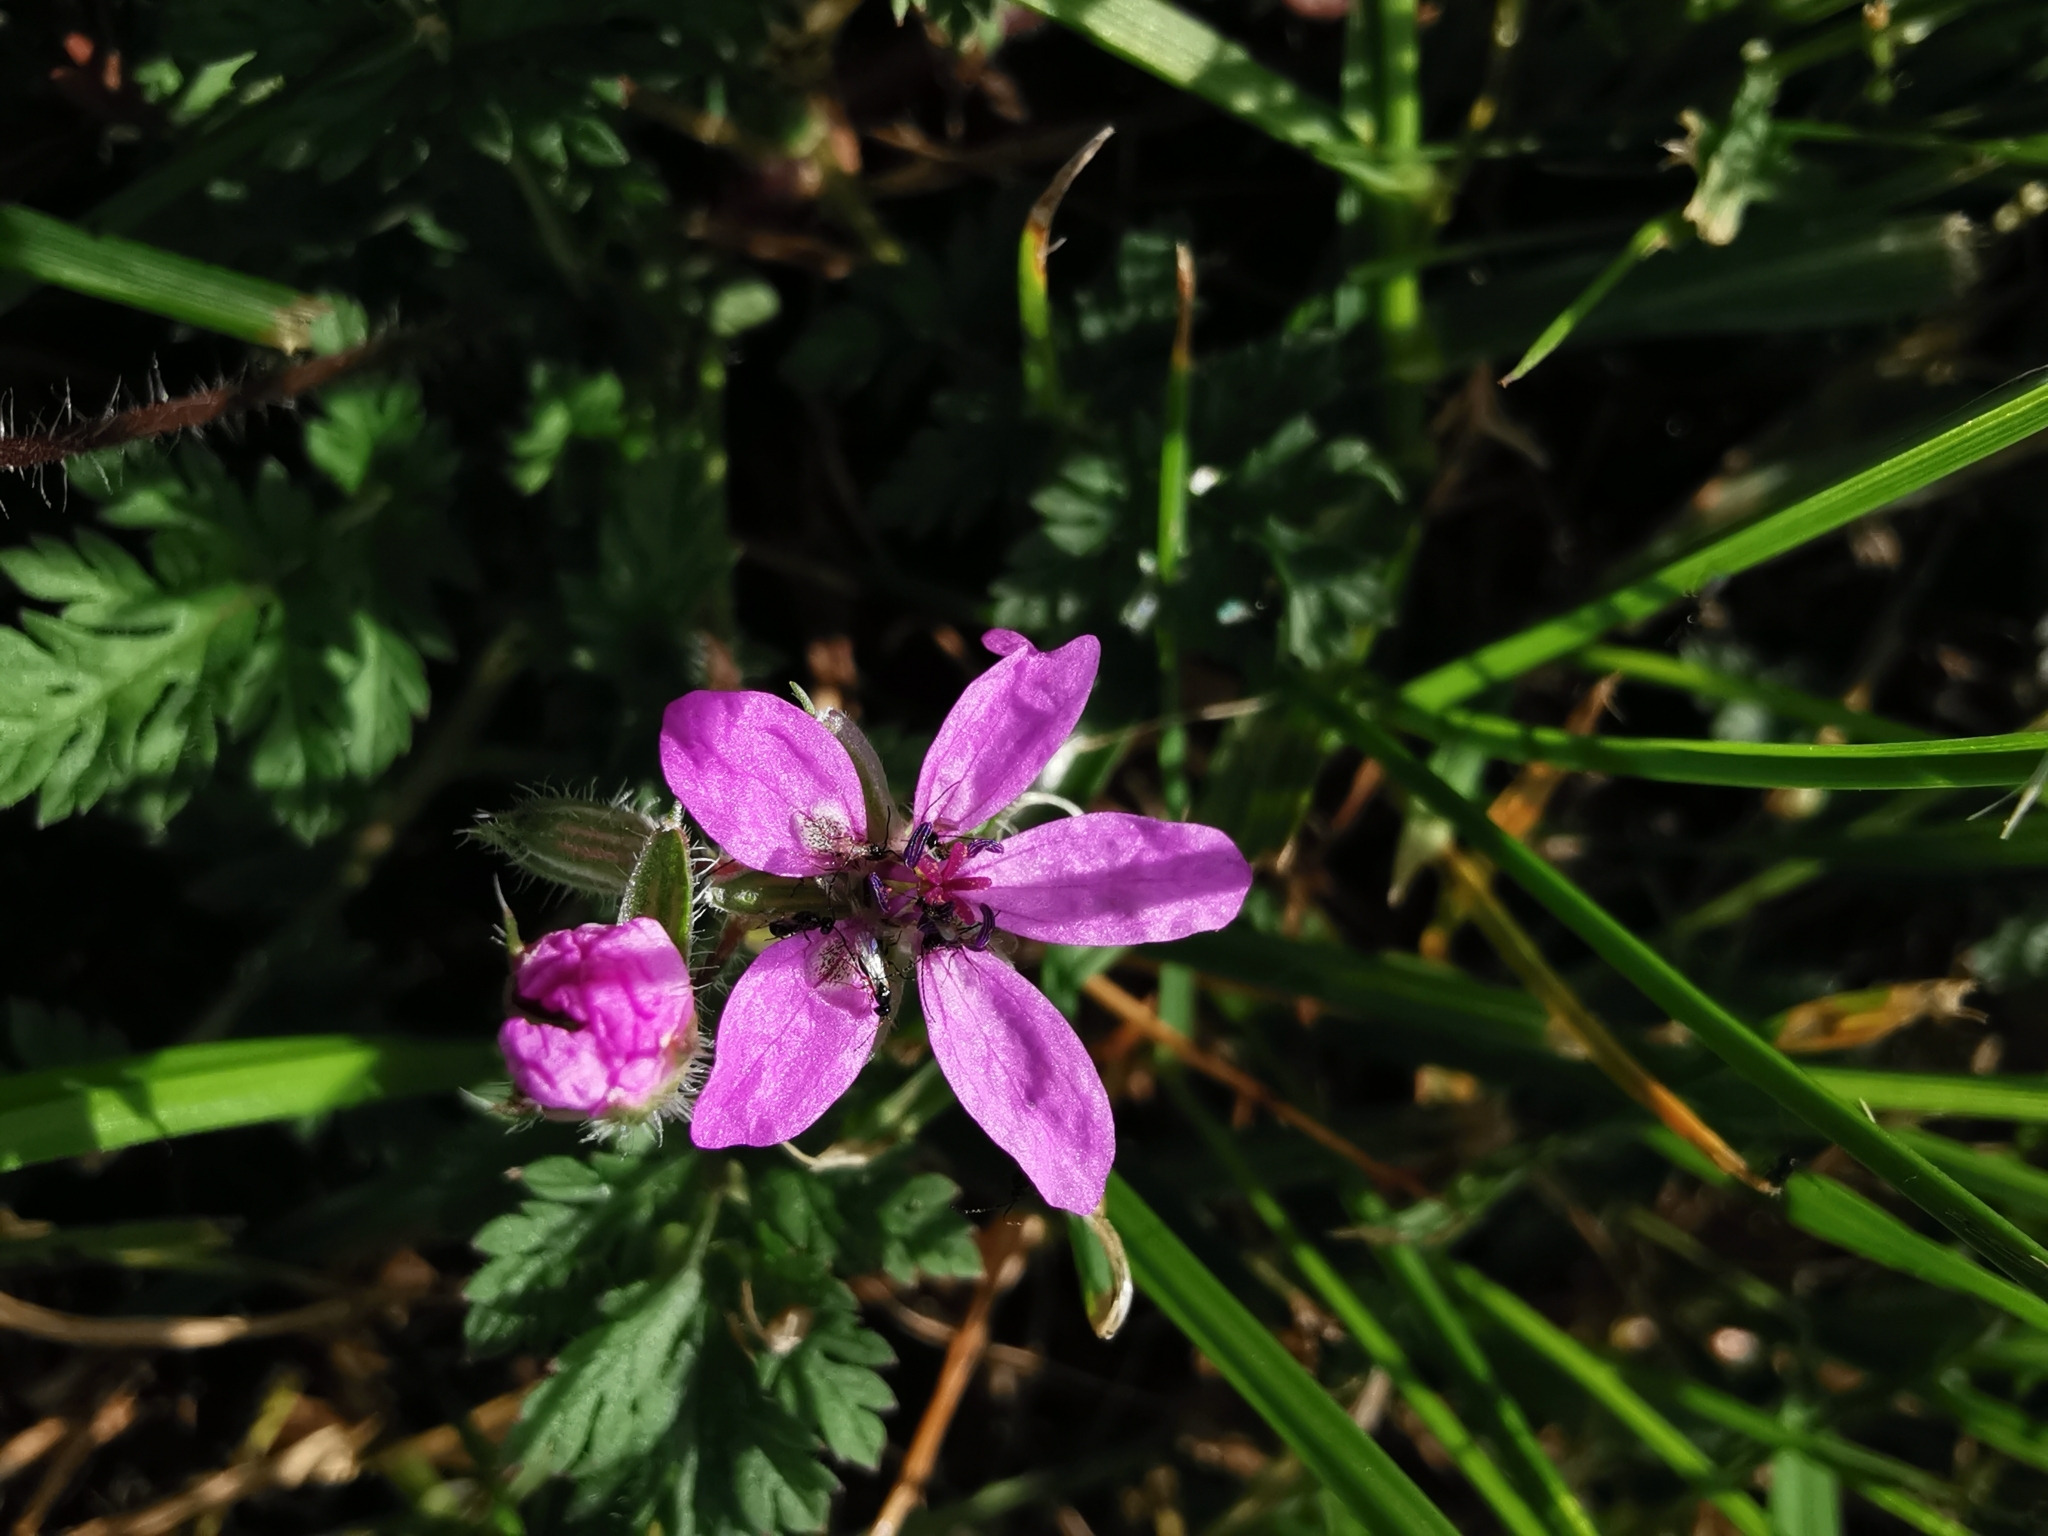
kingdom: Plantae
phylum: Tracheophyta
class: Magnoliopsida
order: Geraniales
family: Geraniaceae
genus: Erodium
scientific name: Erodium cicutarium
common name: Common stork's-bill
